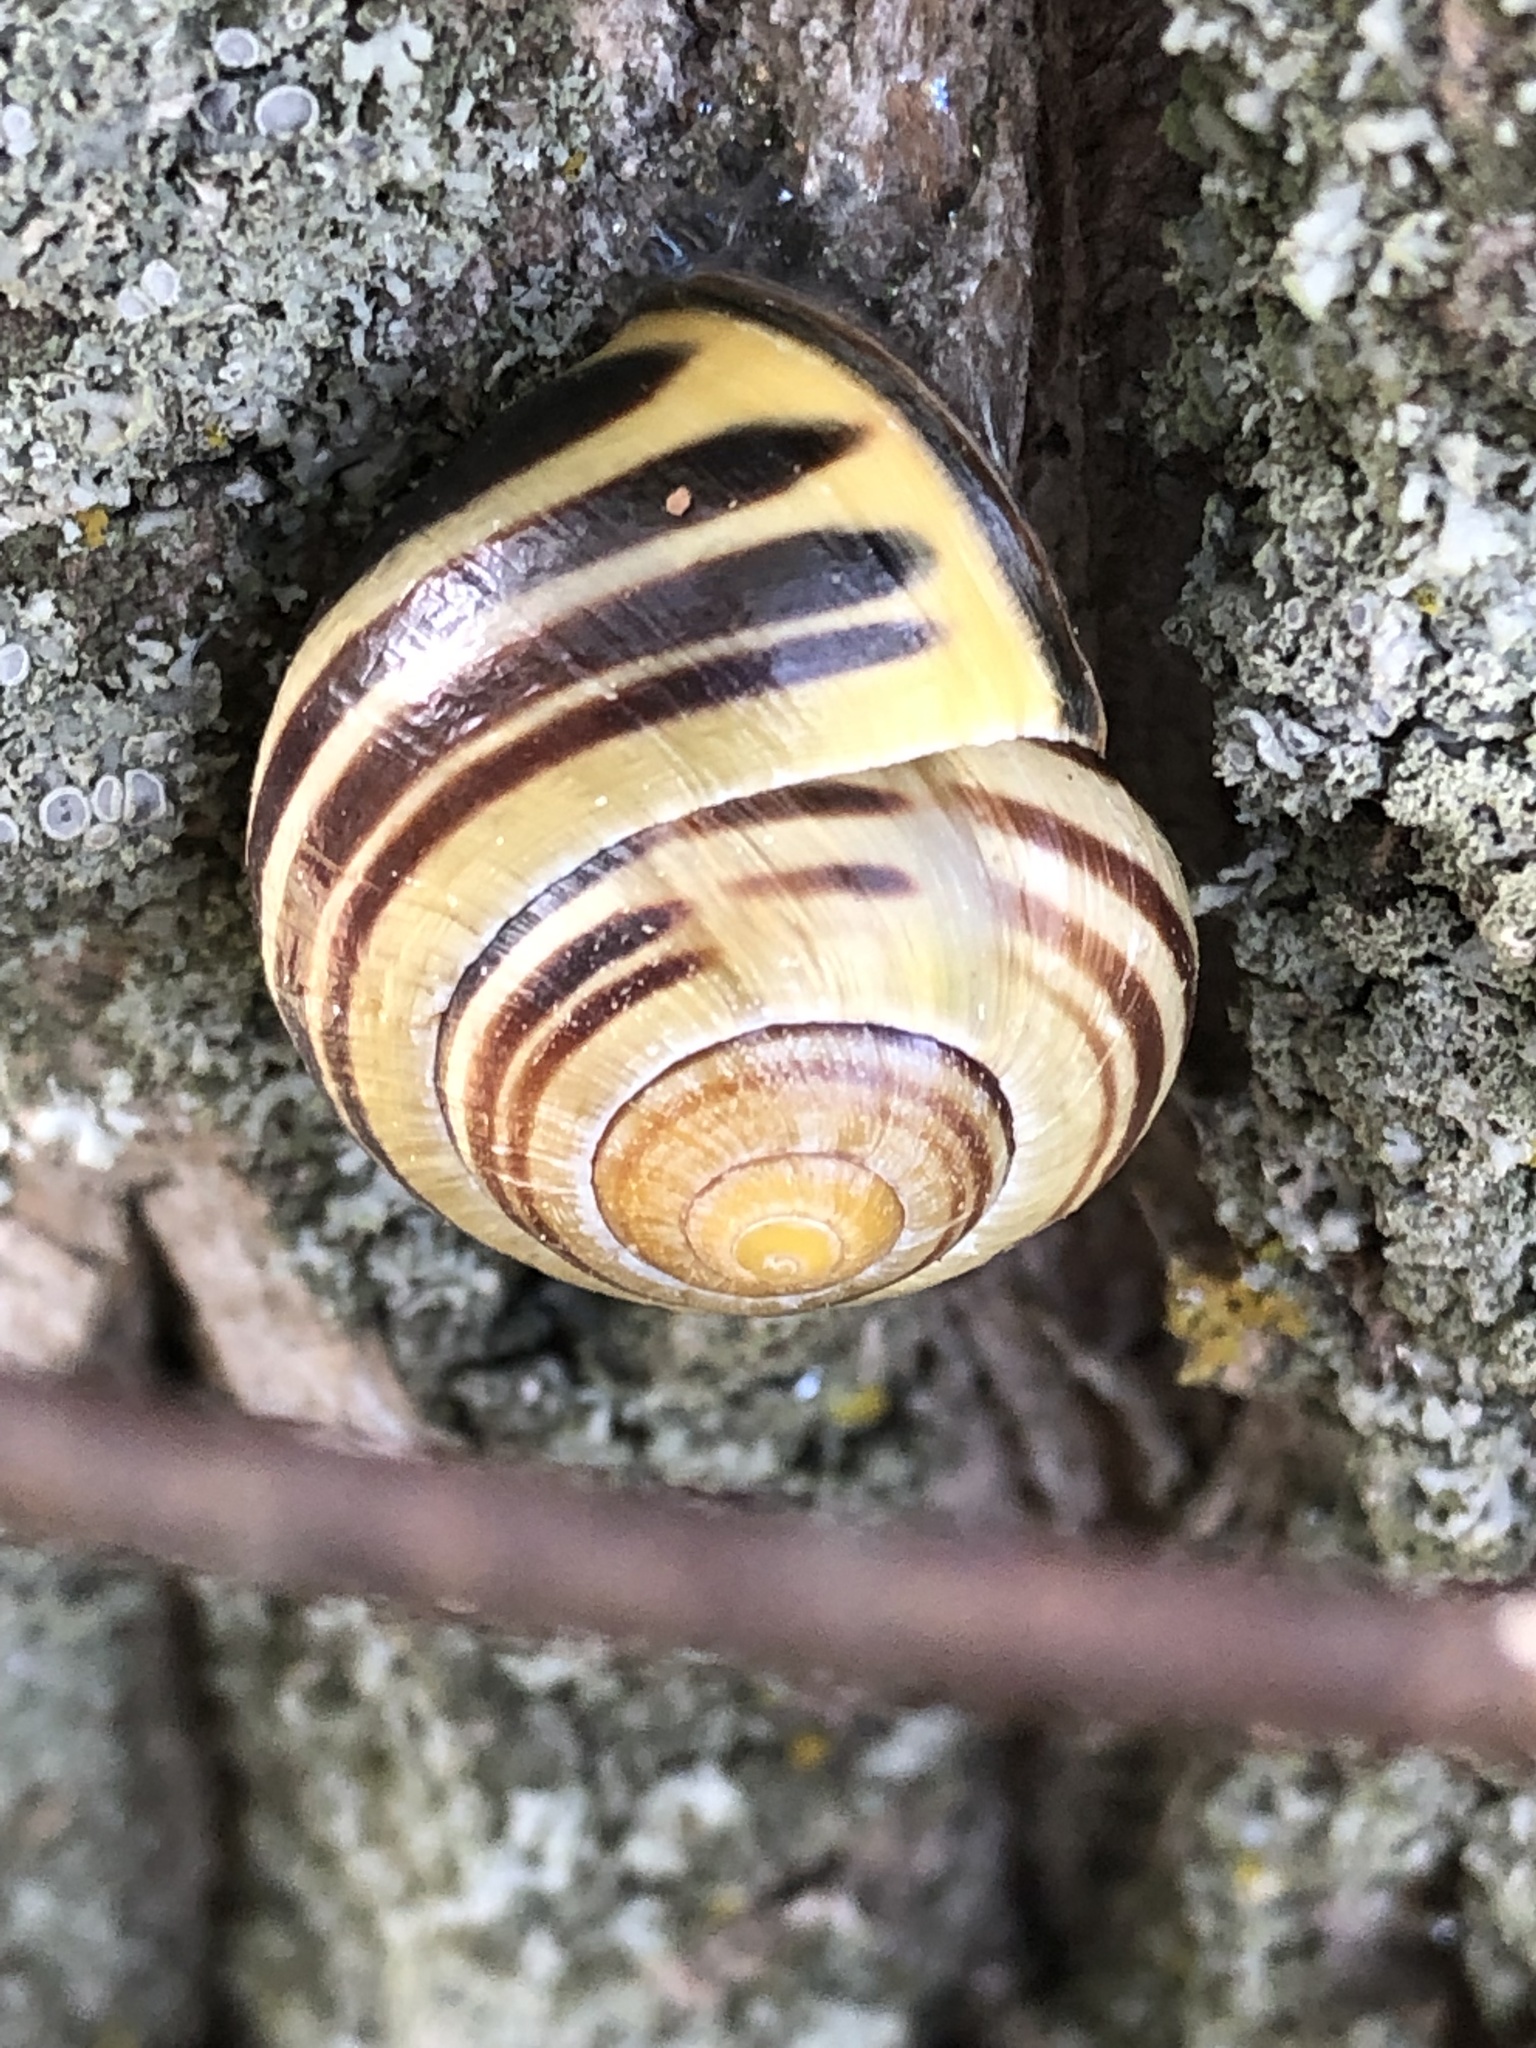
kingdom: Animalia
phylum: Mollusca
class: Gastropoda
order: Stylommatophora
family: Helicidae
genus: Cepaea
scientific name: Cepaea nemoralis
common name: Grovesnail
